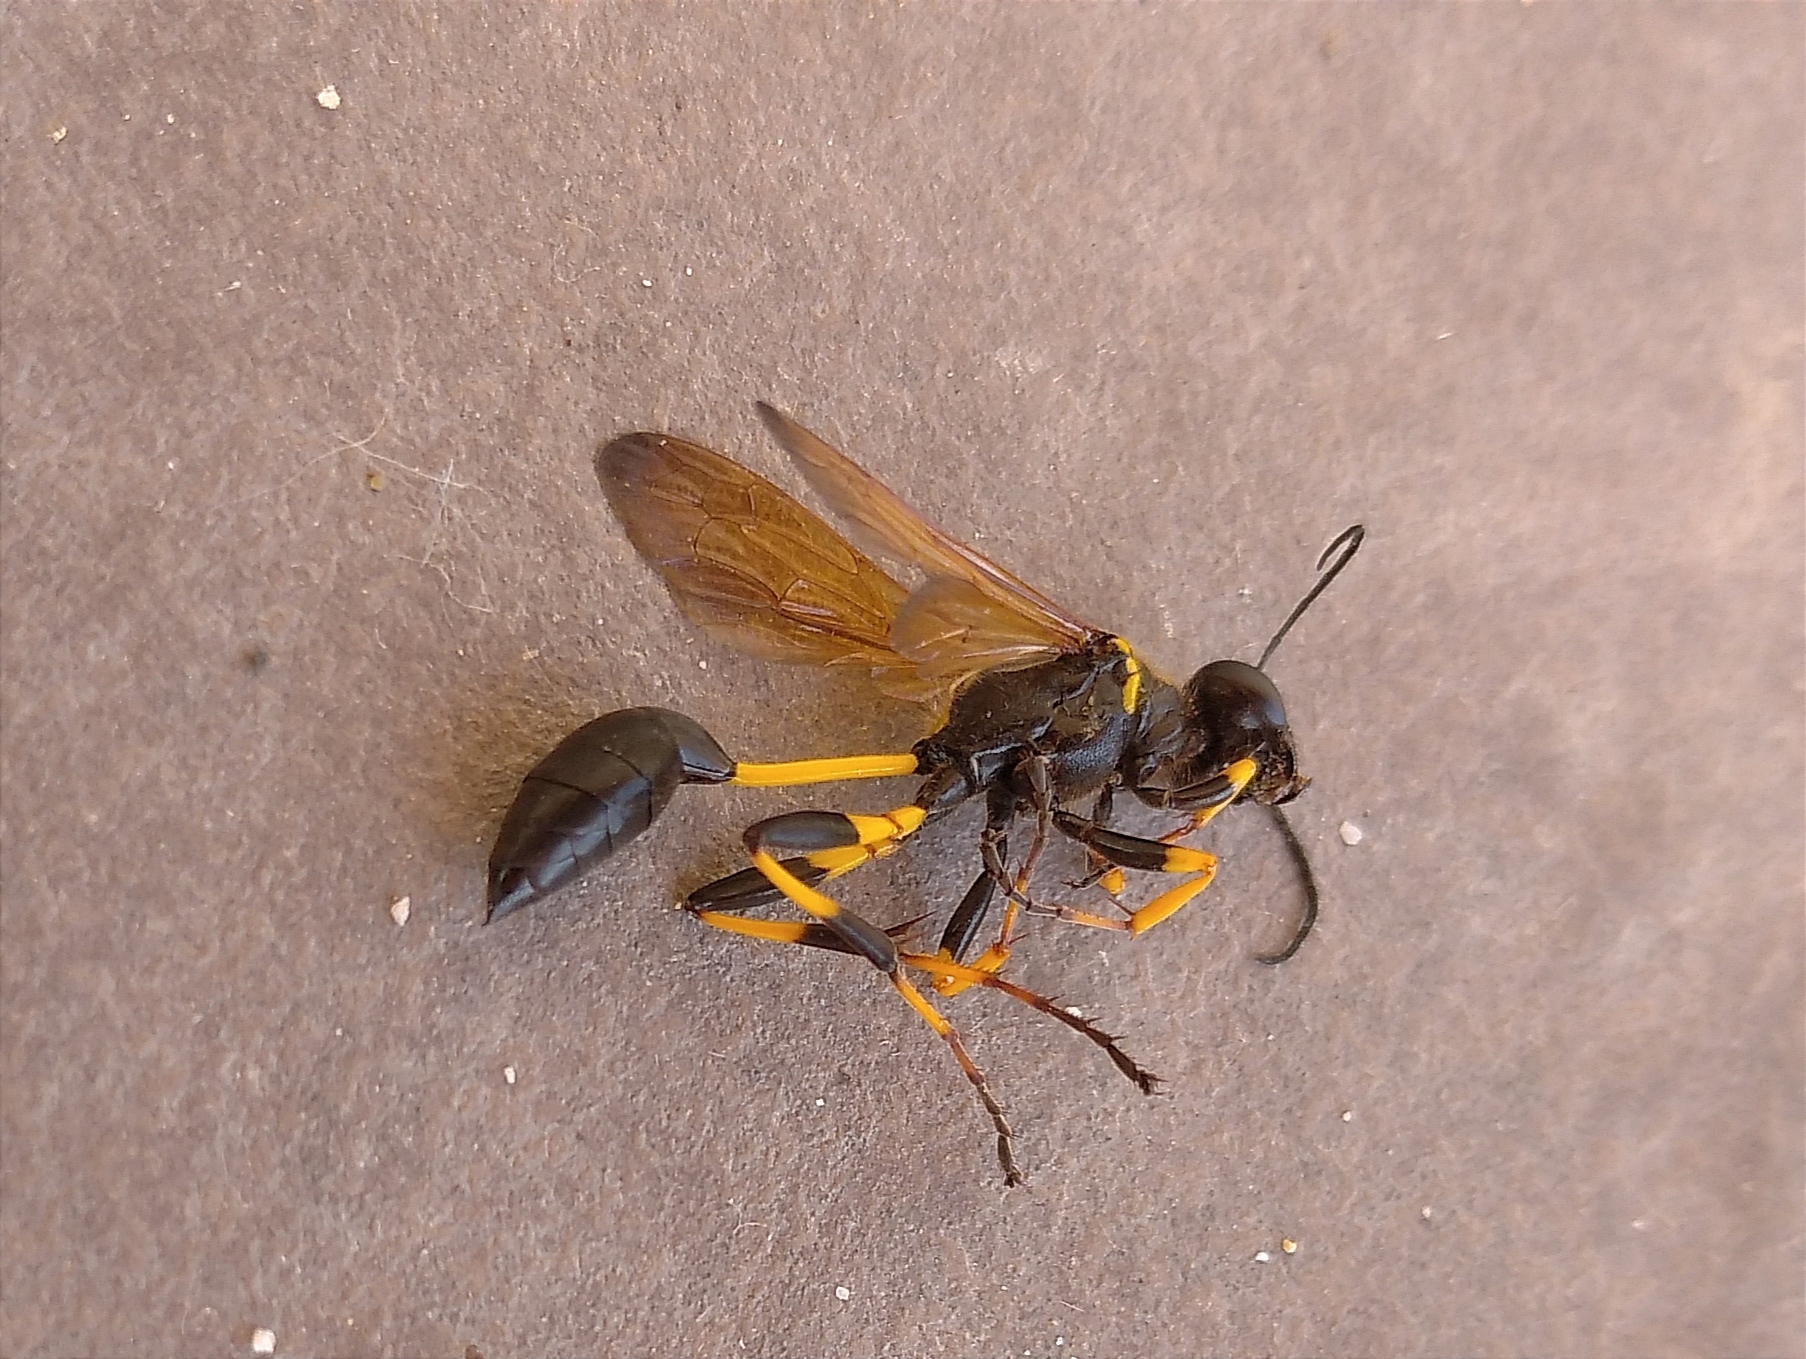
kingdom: Animalia
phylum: Arthropoda
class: Insecta
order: Hymenoptera
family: Sphecidae
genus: Sceliphron
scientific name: Sceliphron
